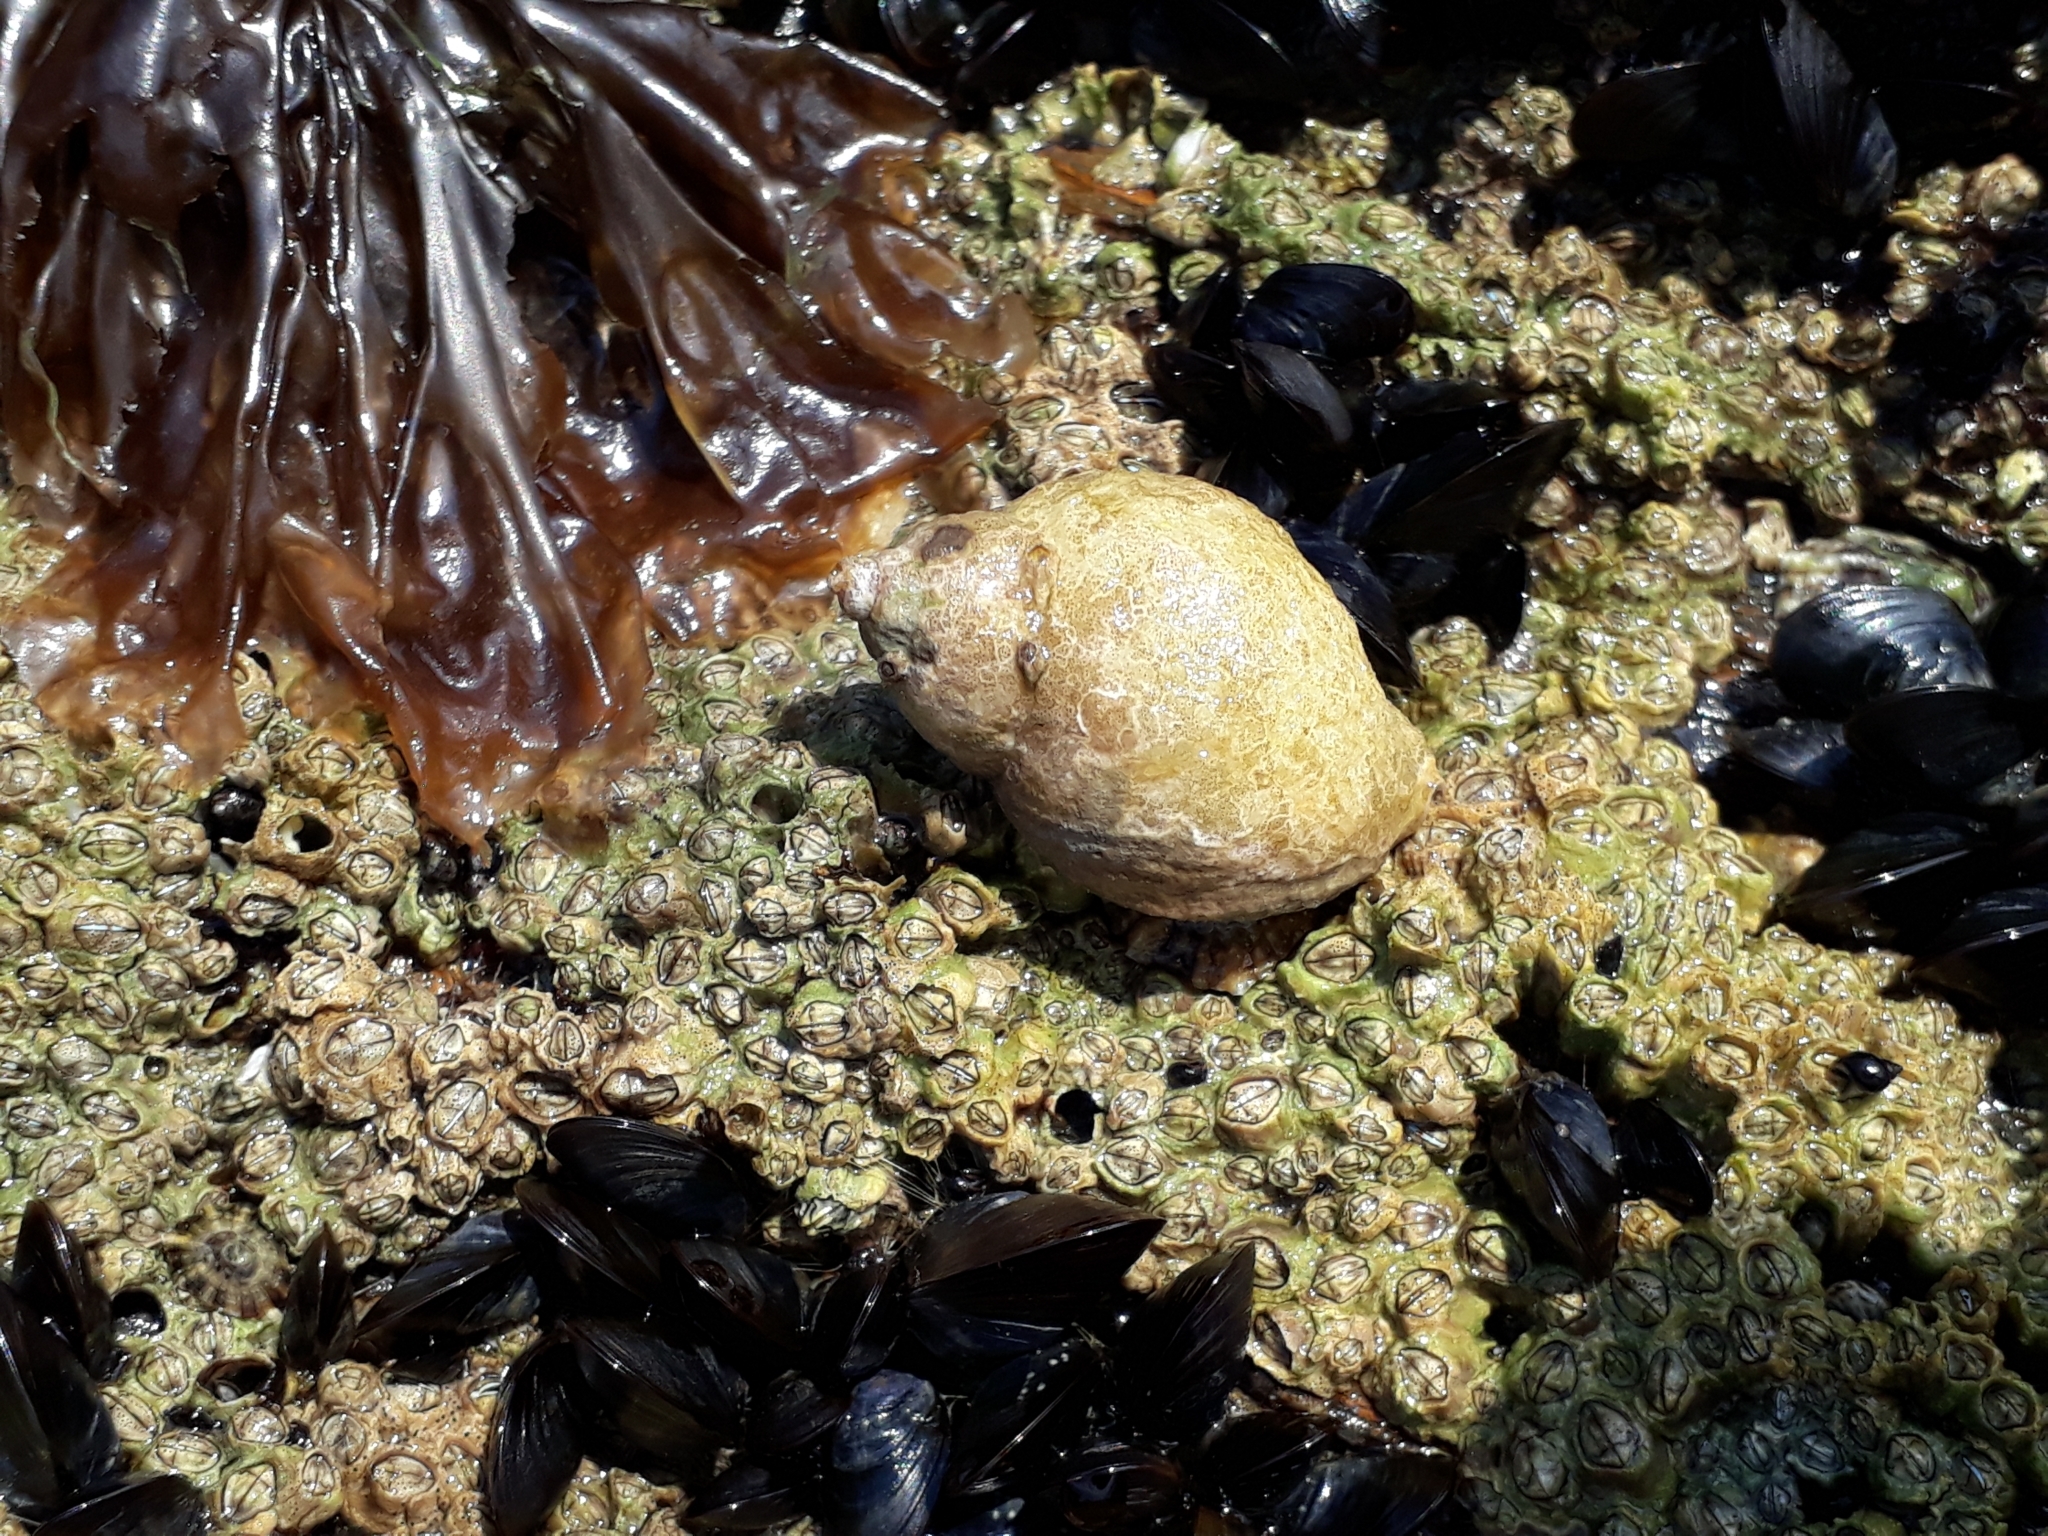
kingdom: Animalia
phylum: Mollusca
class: Gastropoda
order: Neogastropoda
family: Muricidae
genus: Nucella
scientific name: Nucella lapillus
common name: Dog whelk
